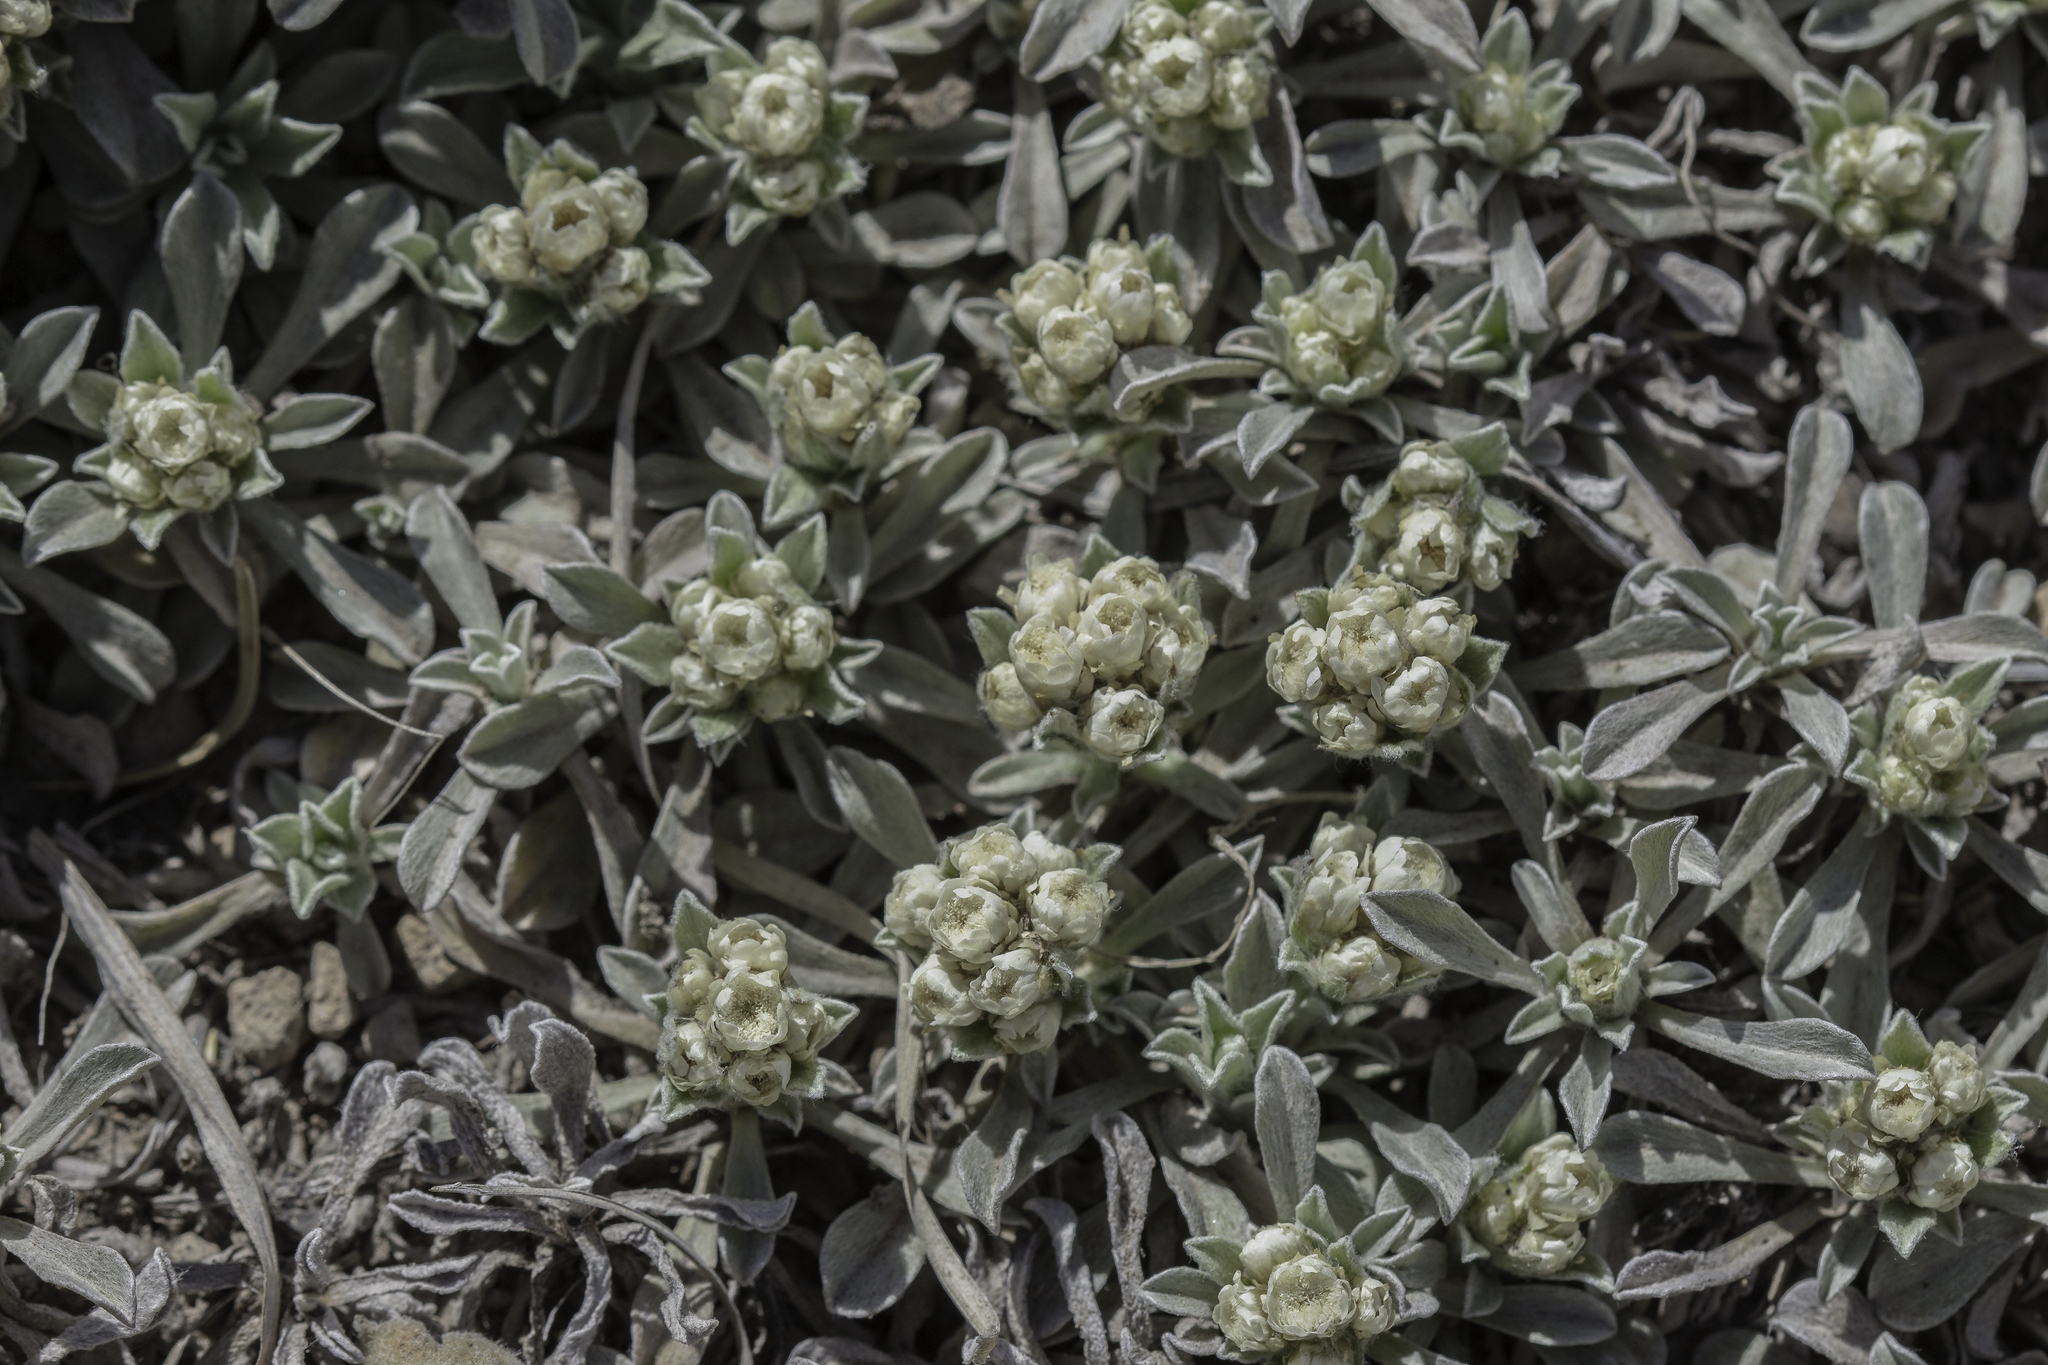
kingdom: Plantae
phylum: Tracheophyta
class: Magnoliopsida
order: Asterales
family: Asteraceae
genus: Antennaria
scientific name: Antennaria parvifolia
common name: Nuttall's pussytoes
